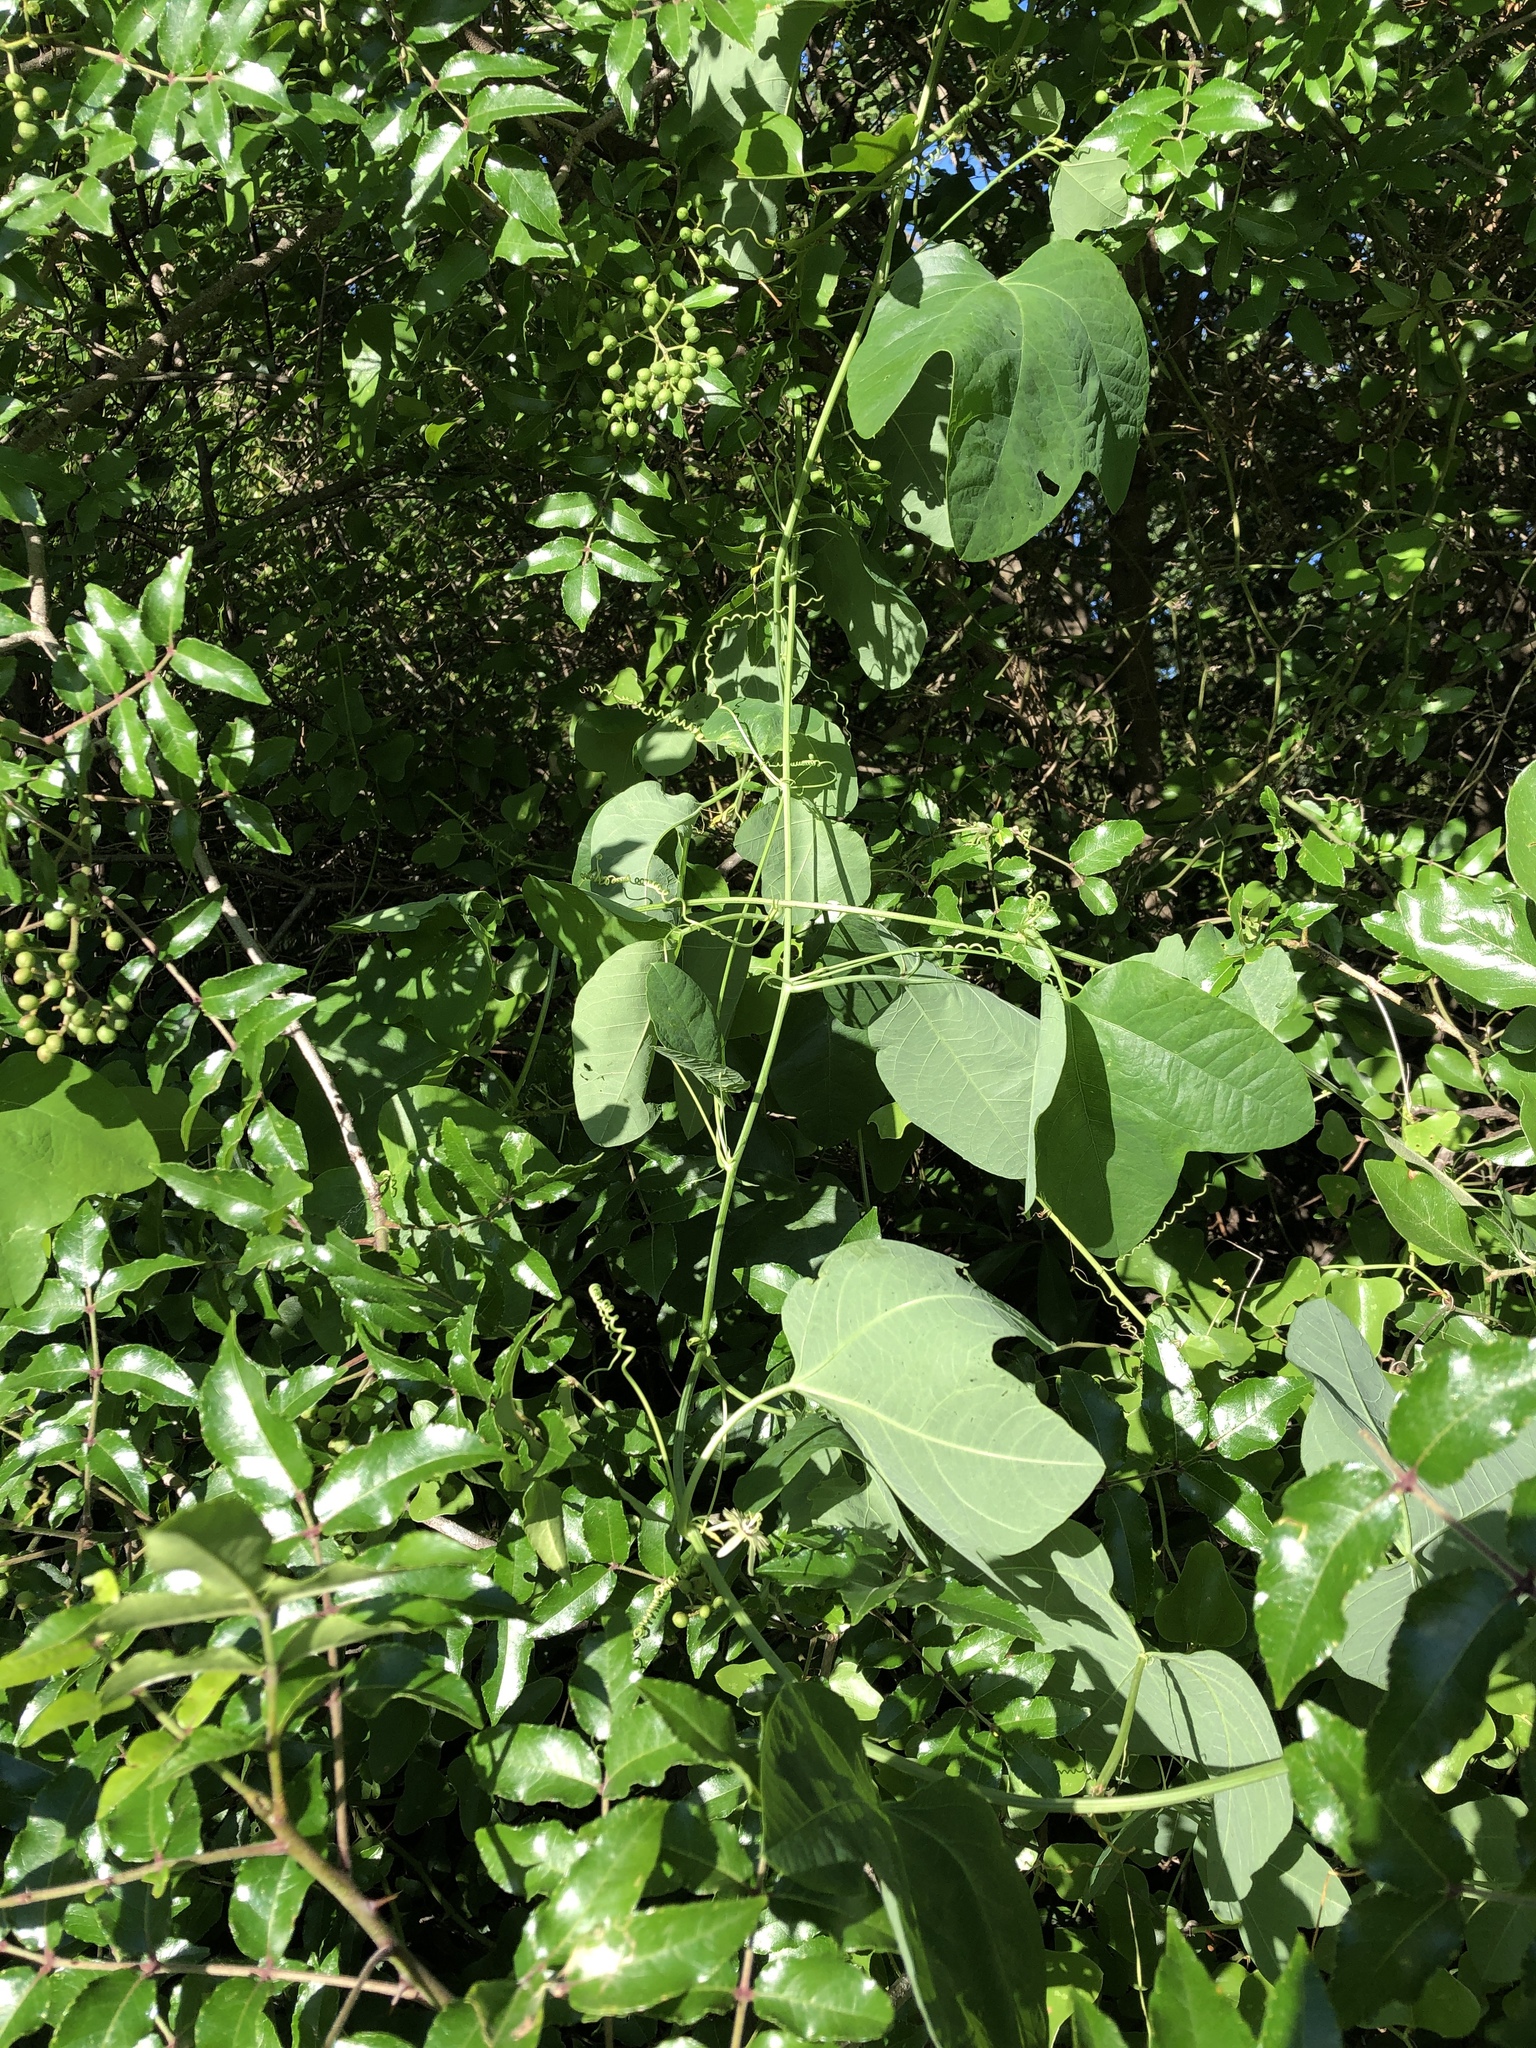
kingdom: Plantae
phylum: Tracheophyta
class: Magnoliopsida
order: Malpighiales
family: Passifloraceae
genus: Passiflora
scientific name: Passiflora lutea
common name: Yellow passionflower
